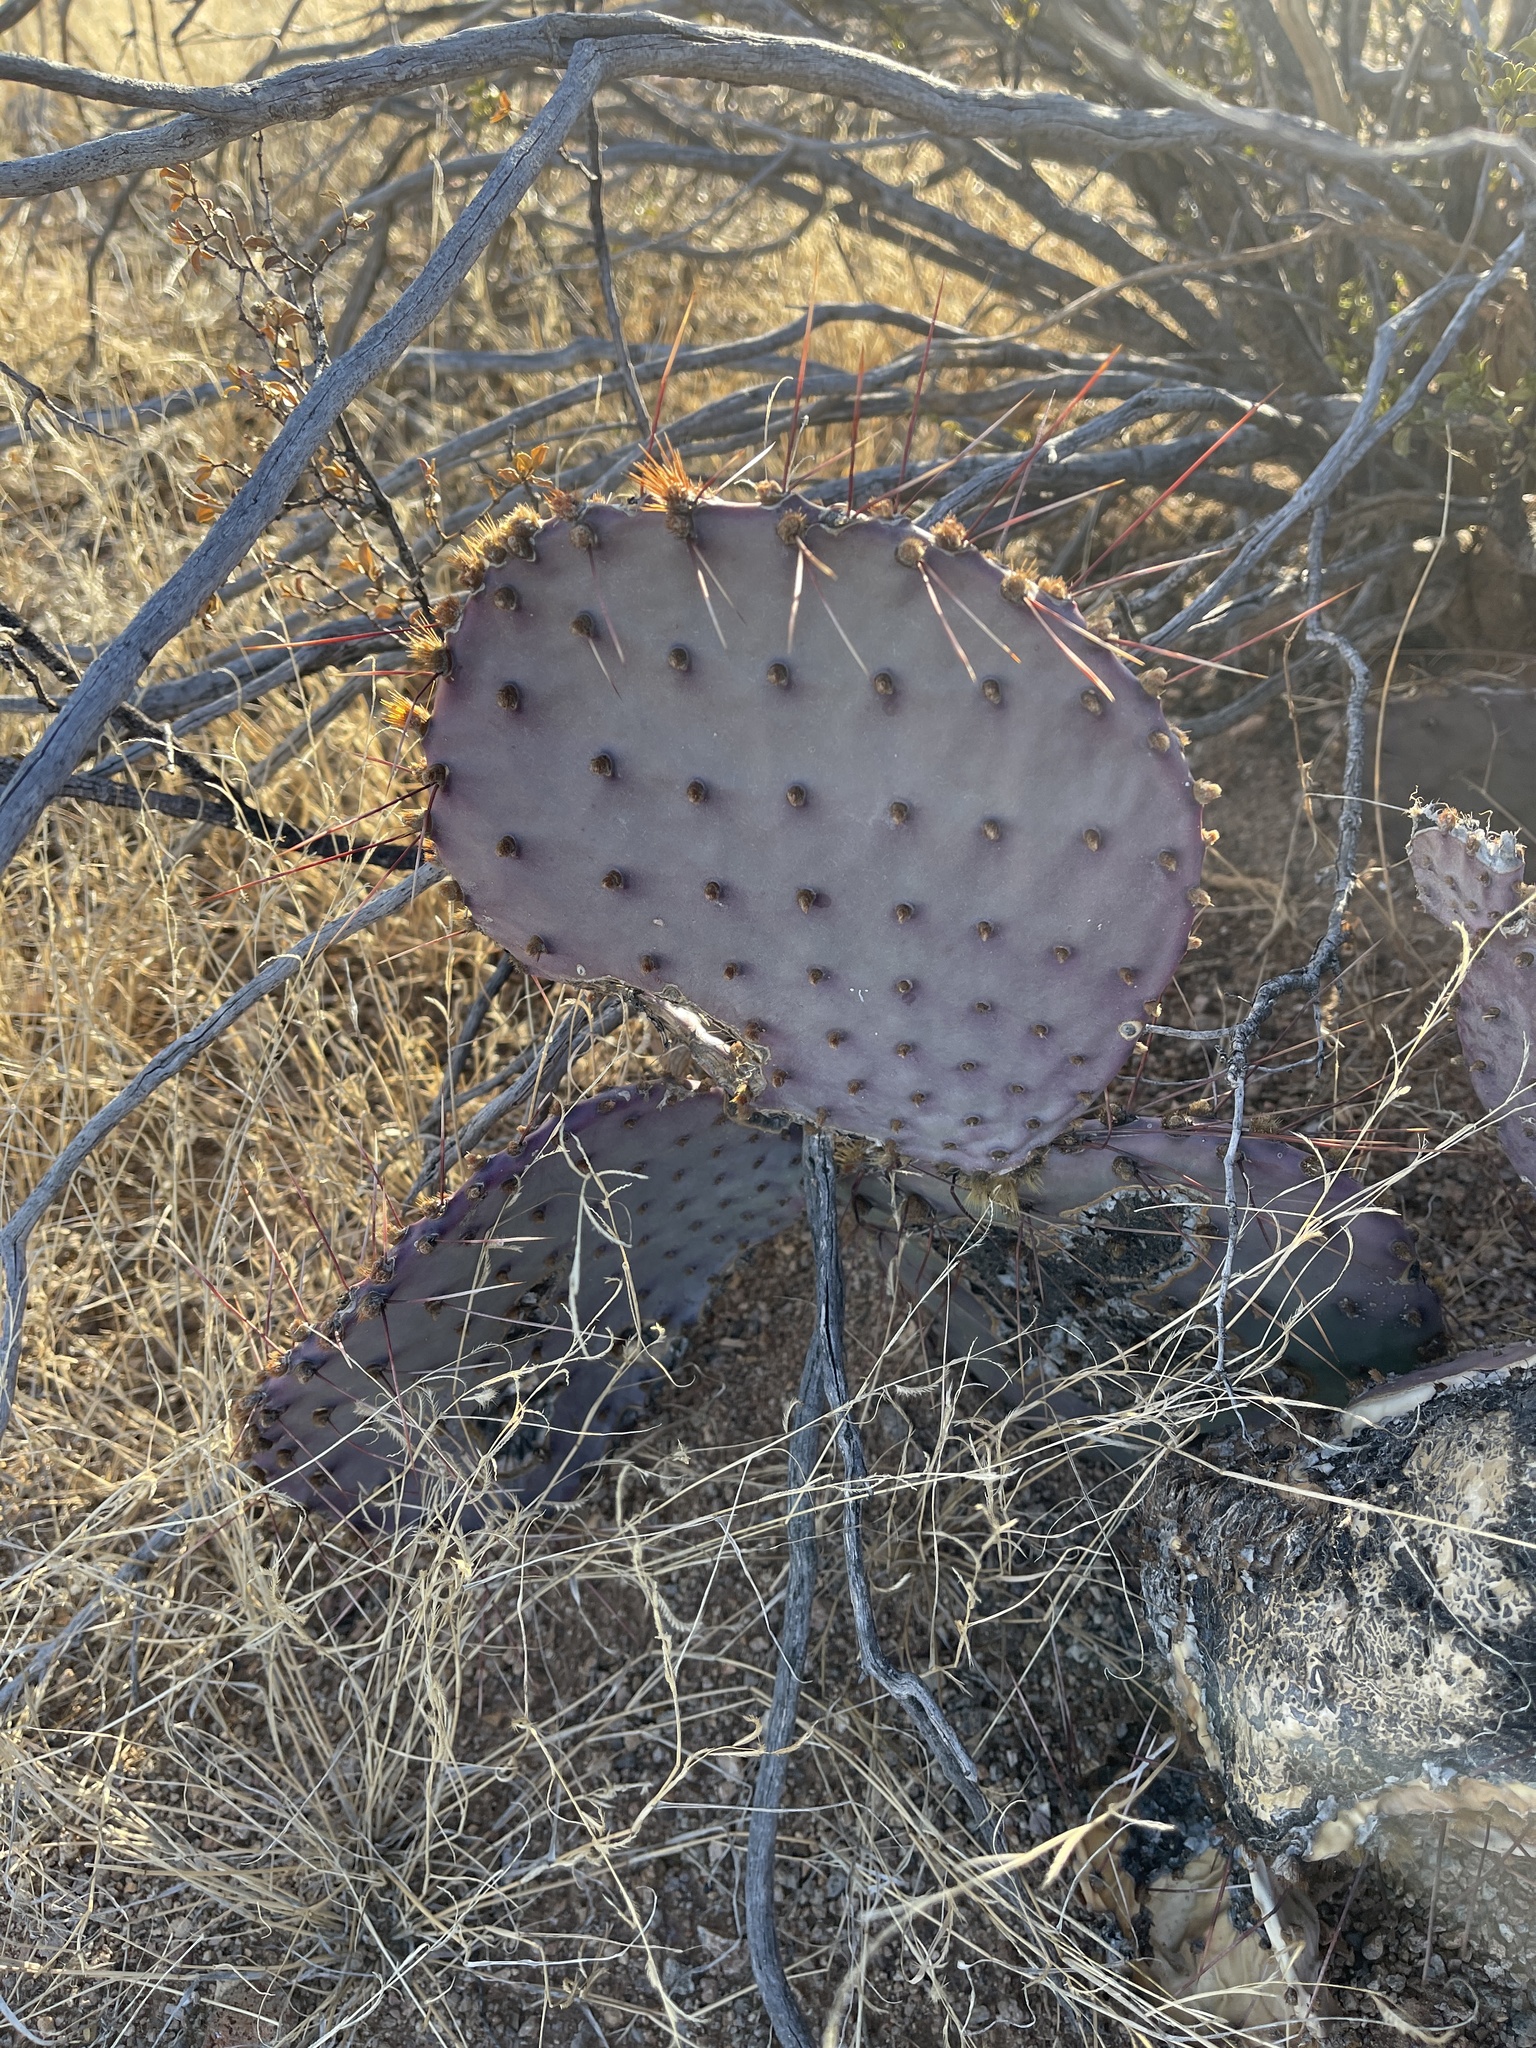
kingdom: Plantae
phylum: Tracheophyta
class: Magnoliopsida
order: Caryophyllales
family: Cactaceae
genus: Opuntia
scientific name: Opuntia macrocentra
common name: Purple prickly-pear
